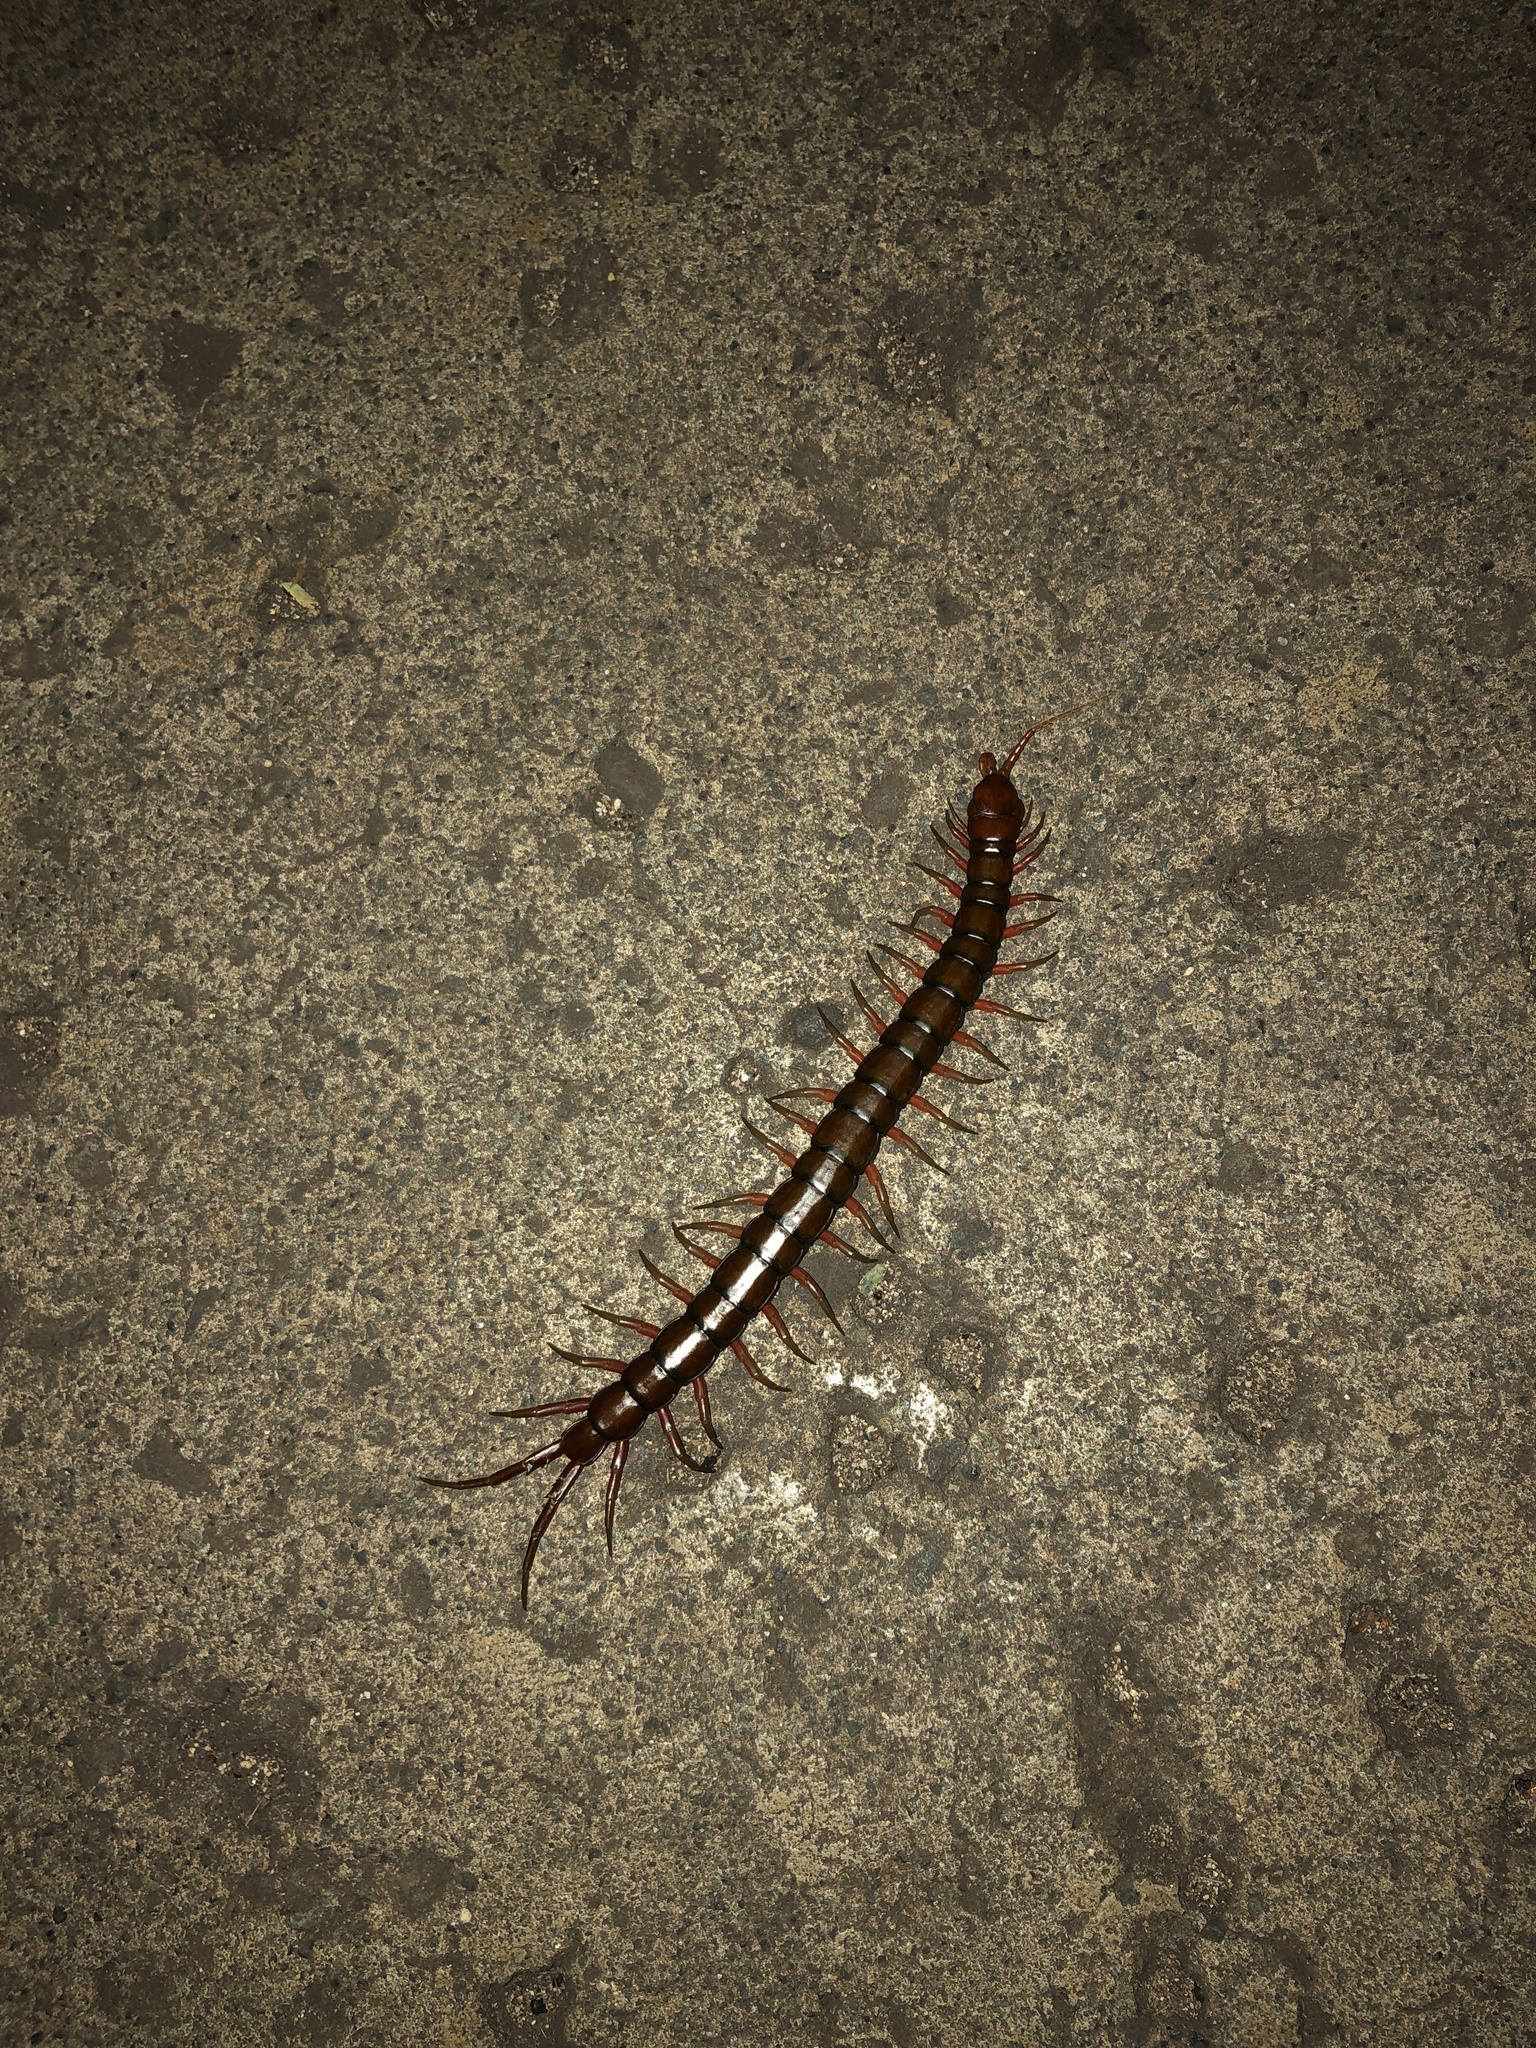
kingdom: Animalia
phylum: Arthropoda
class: Chilopoda
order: Scolopendromorpha
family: Scolopendridae
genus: Scolopendra
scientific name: Scolopendra subspinipes
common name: Centipede
